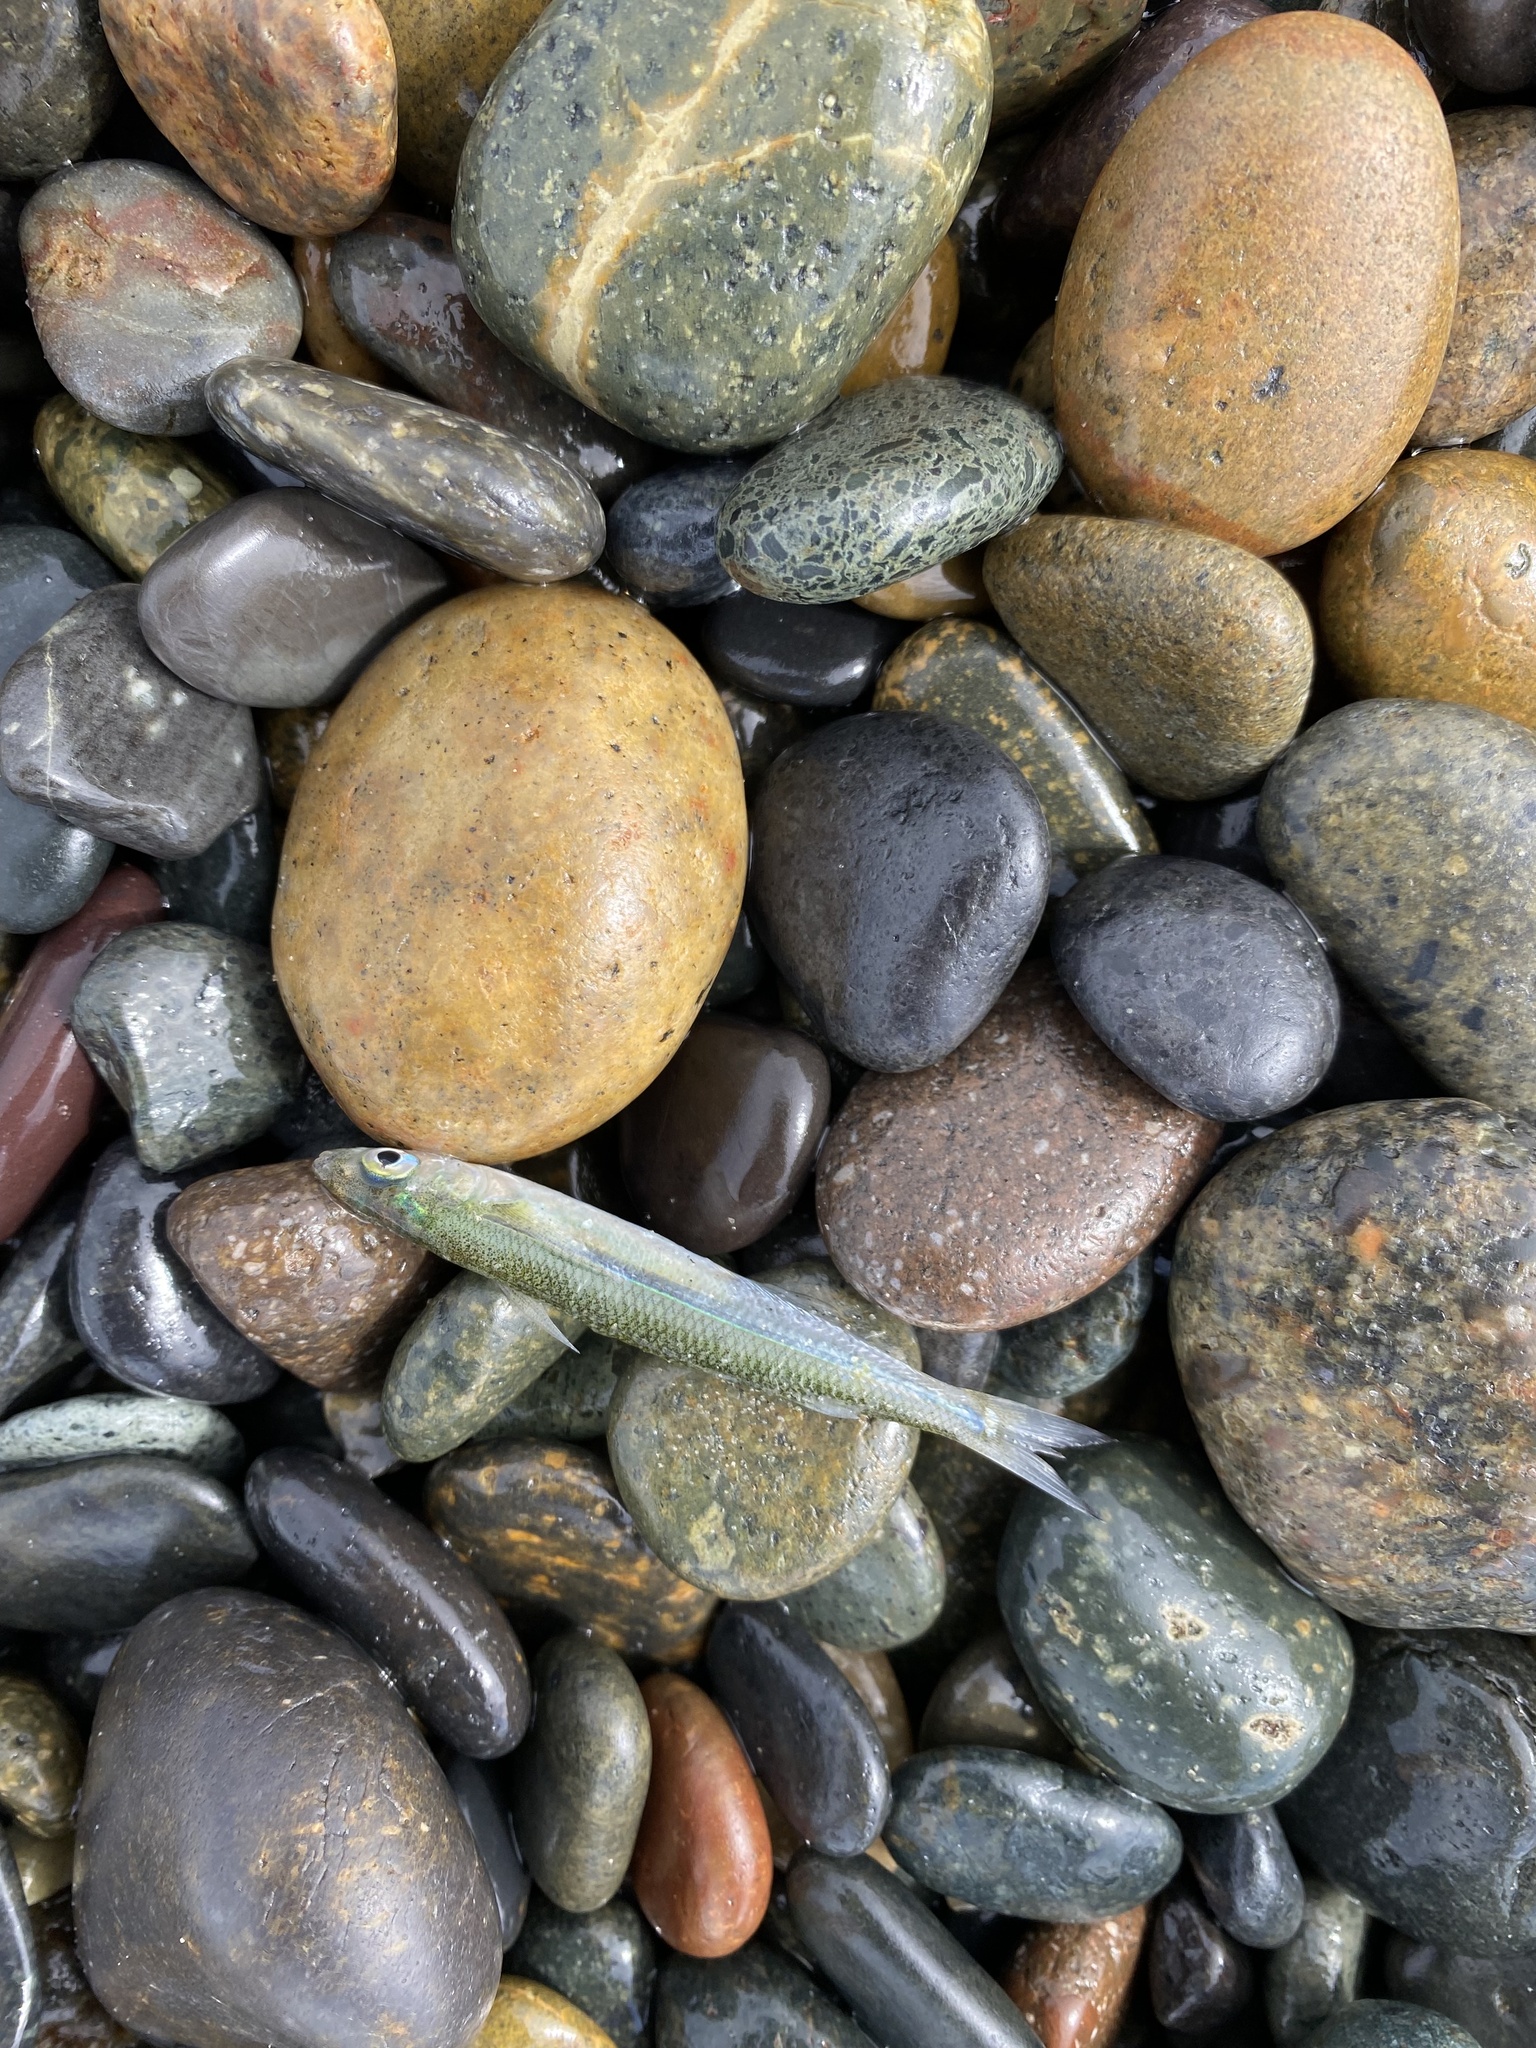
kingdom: Animalia
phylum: Chordata
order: Atheriniformes
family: Atherinopsidae
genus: Atherinops
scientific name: Atherinops affinis
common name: Topsmelt
